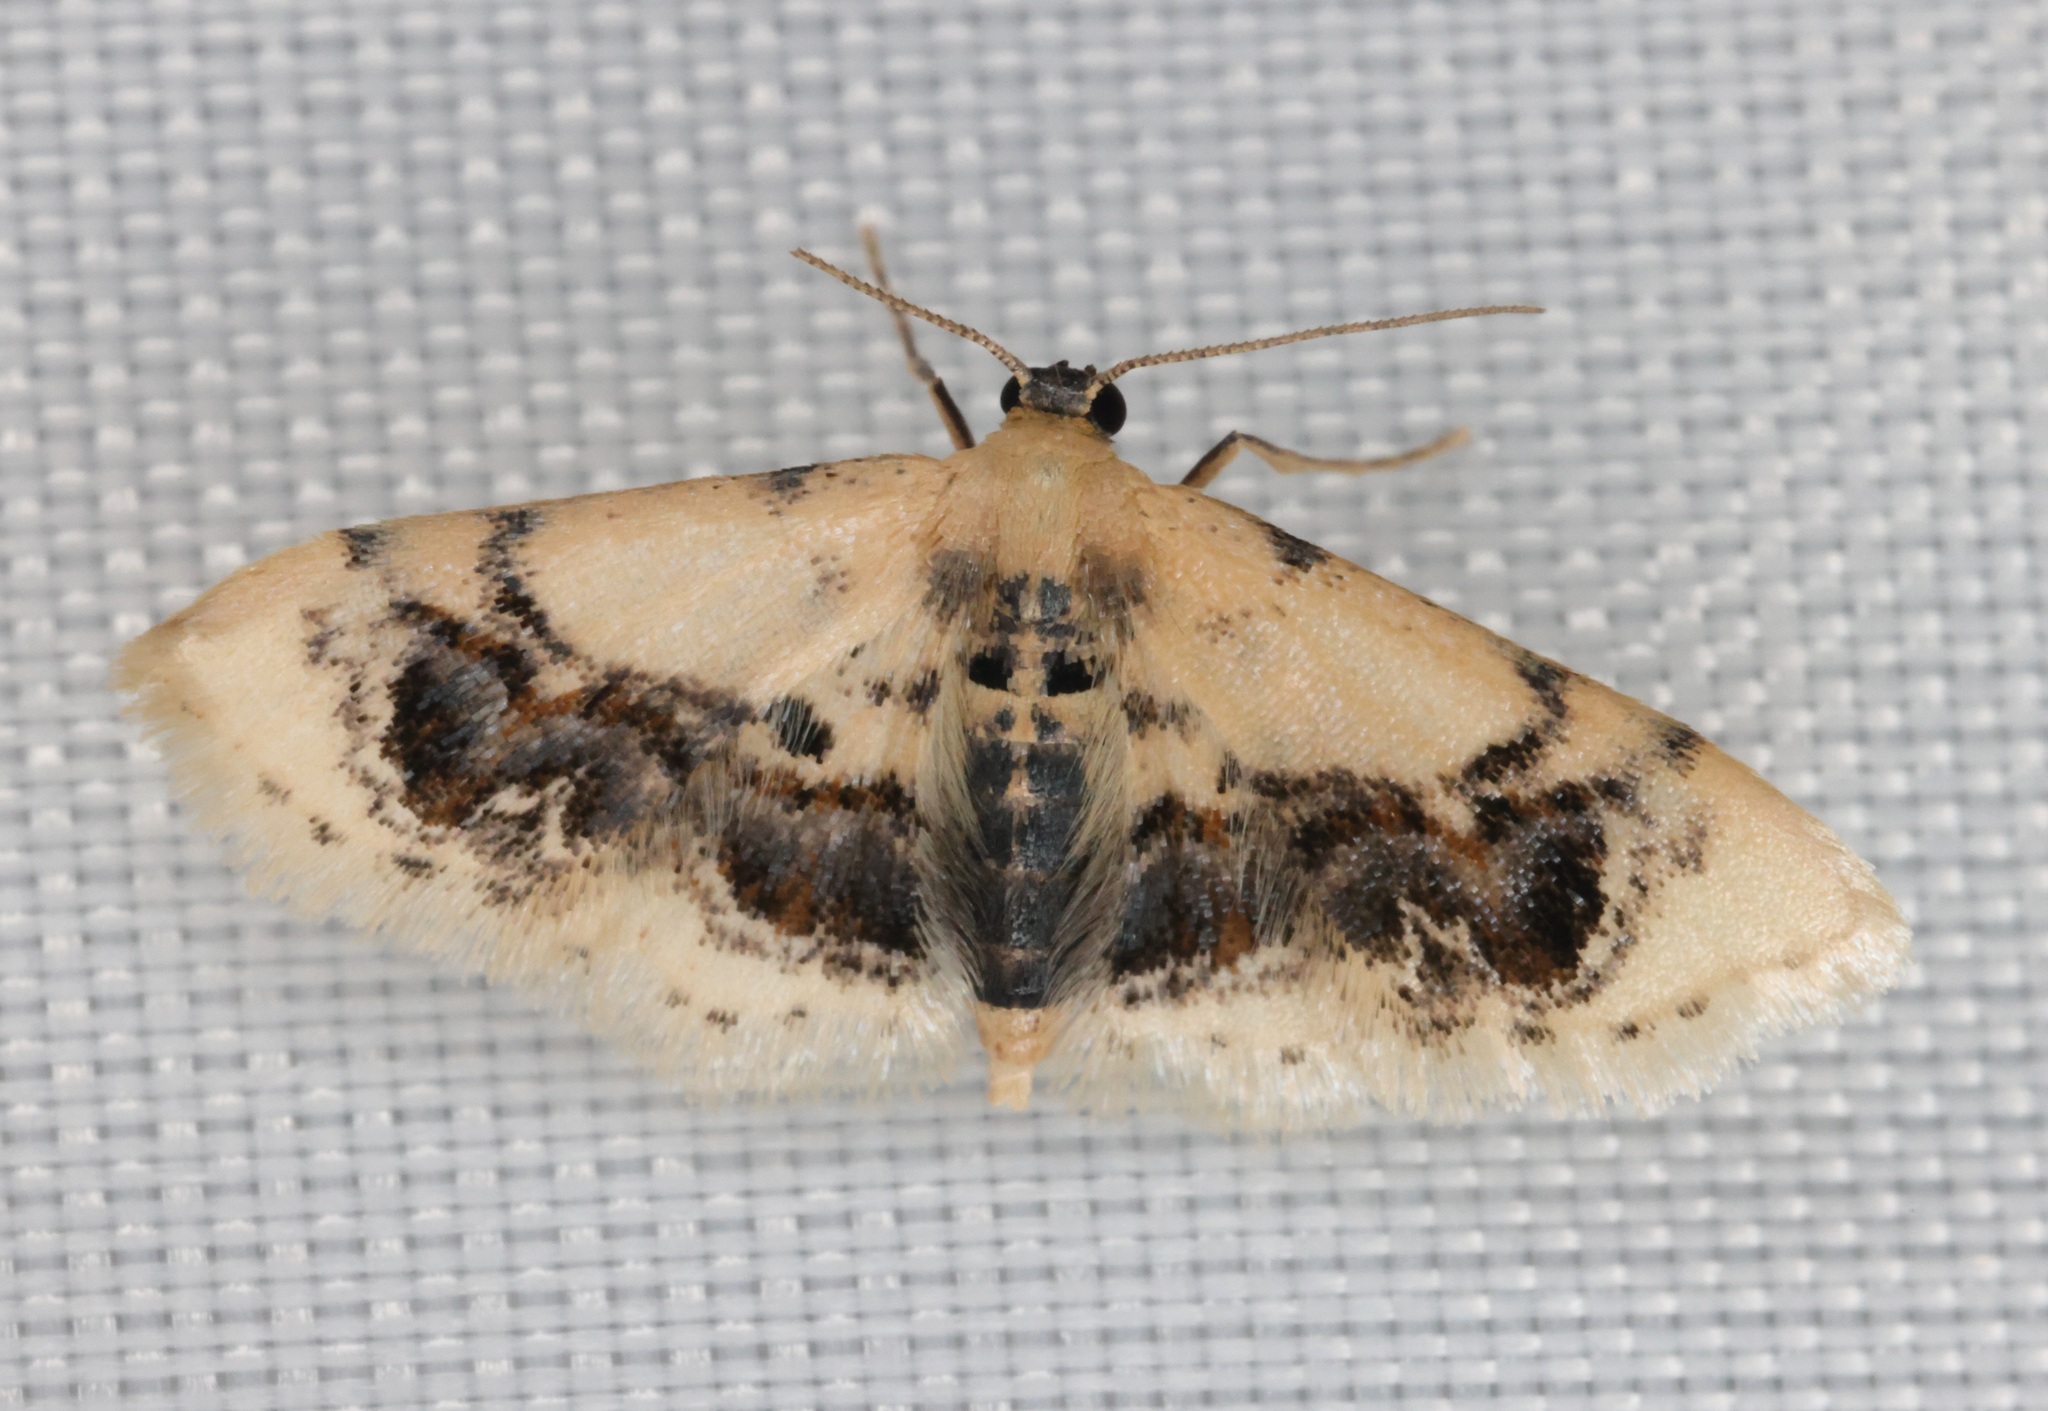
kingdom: Animalia
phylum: Arthropoda
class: Insecta
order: Lepidoptera
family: Geometridae
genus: Idaea
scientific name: Idaea macrospila
